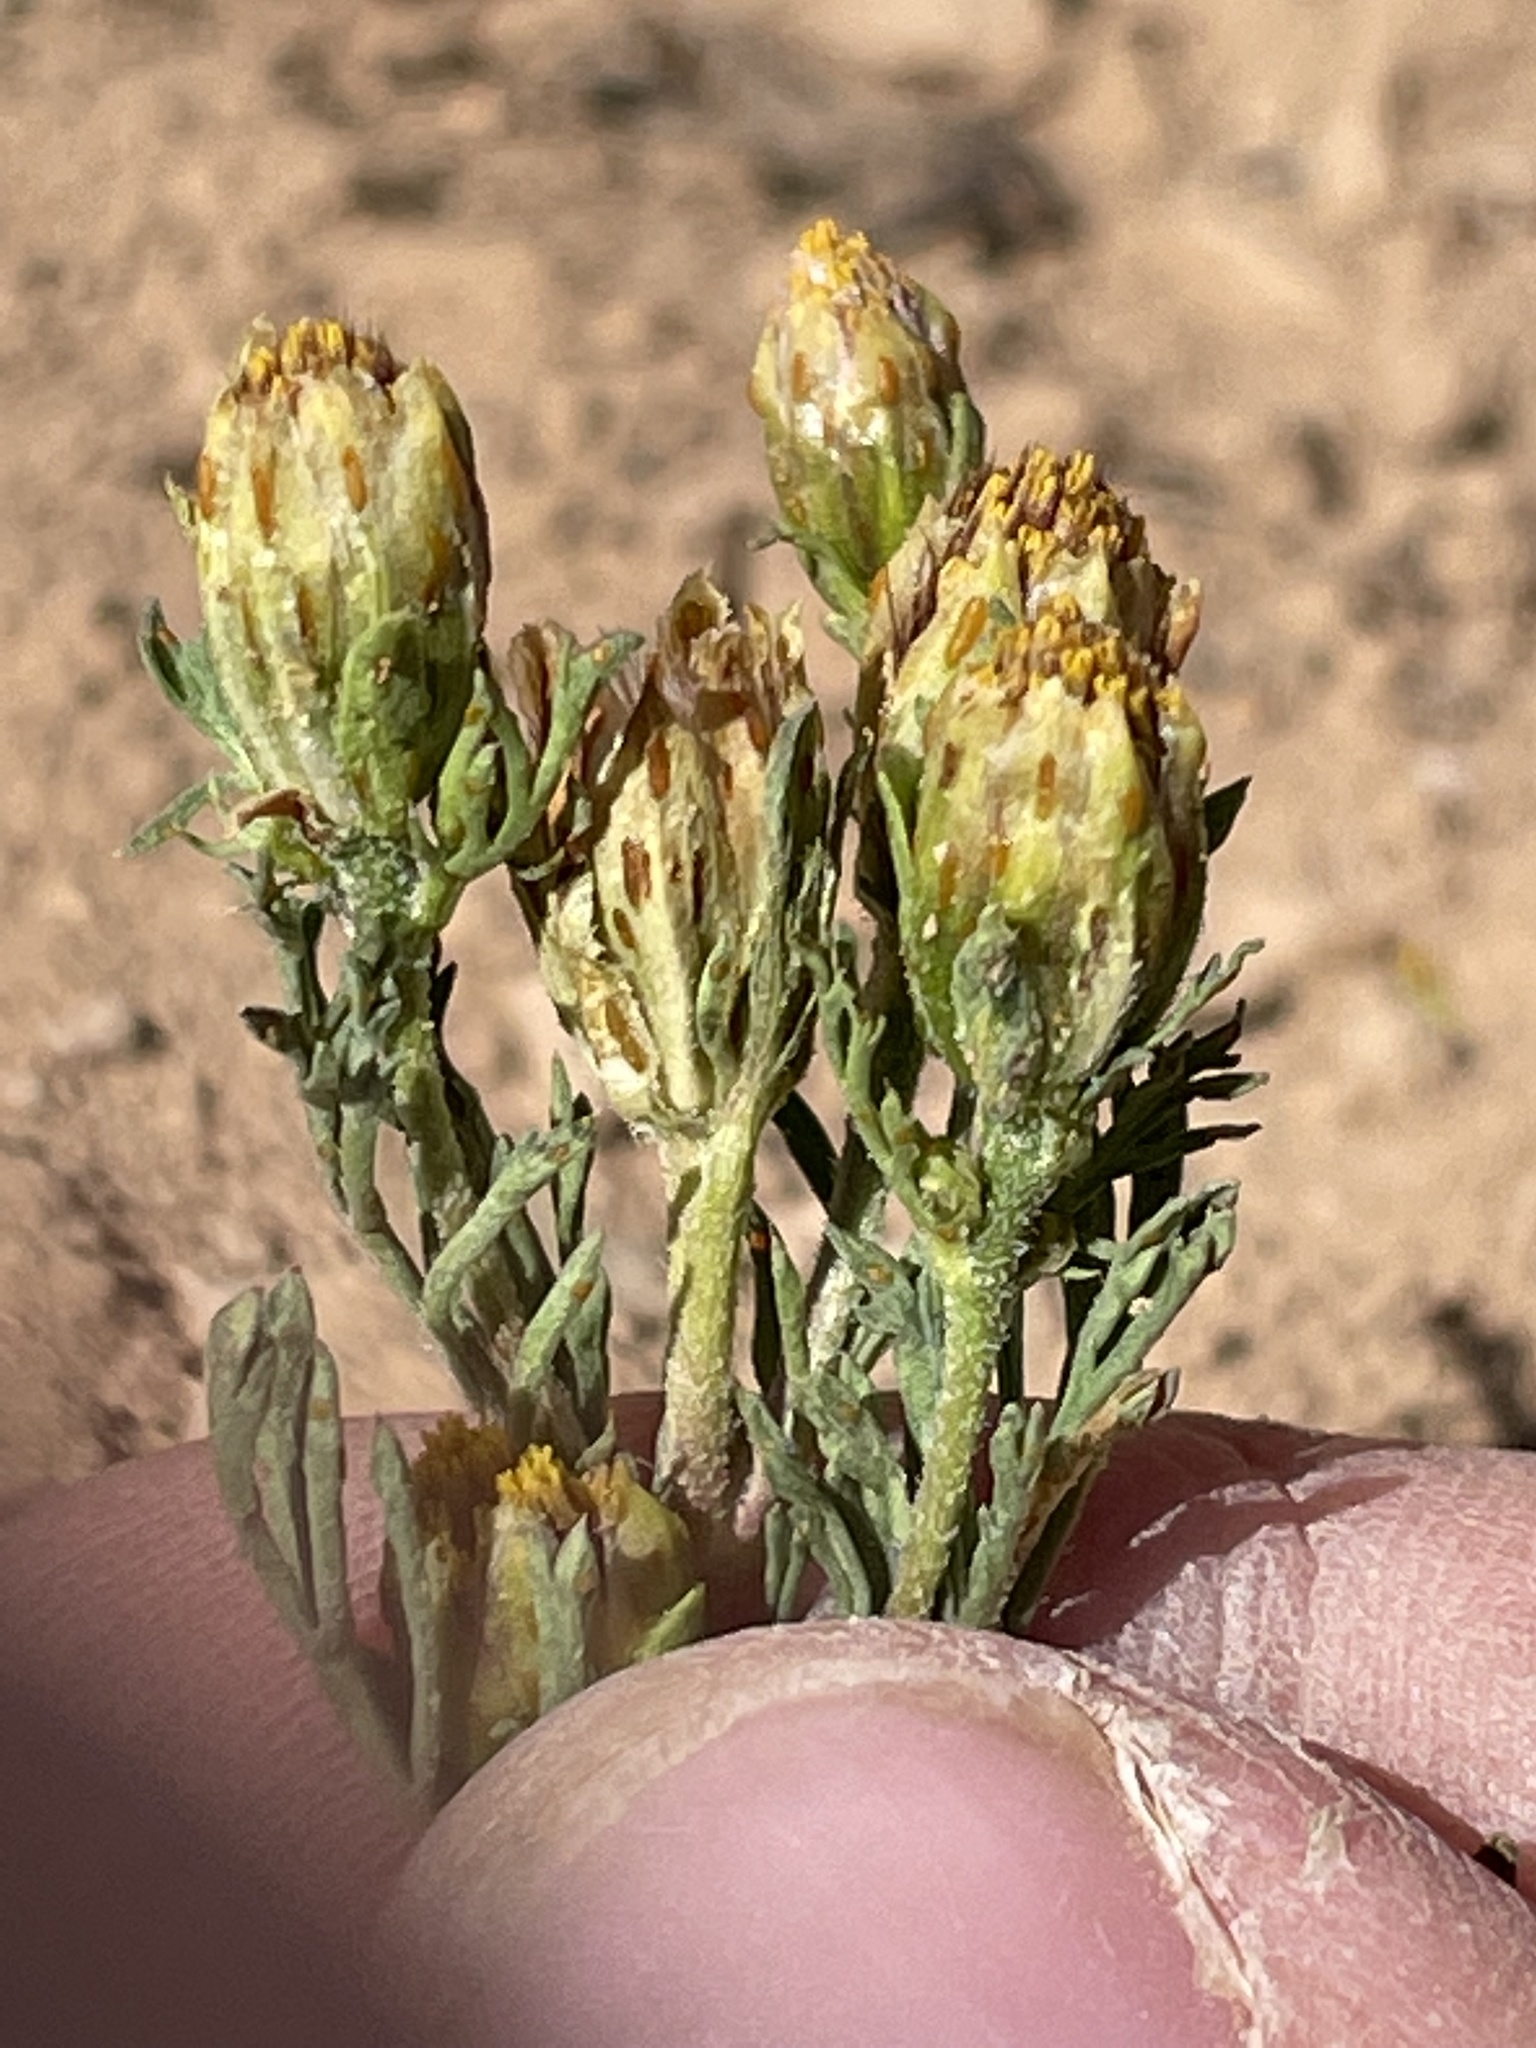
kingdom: Plantae
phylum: Tracheophyta
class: Magnoliopsida
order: Asterales
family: Asteraceae
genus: Dyssodia
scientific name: Dyssodia papposa
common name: Dogweed
